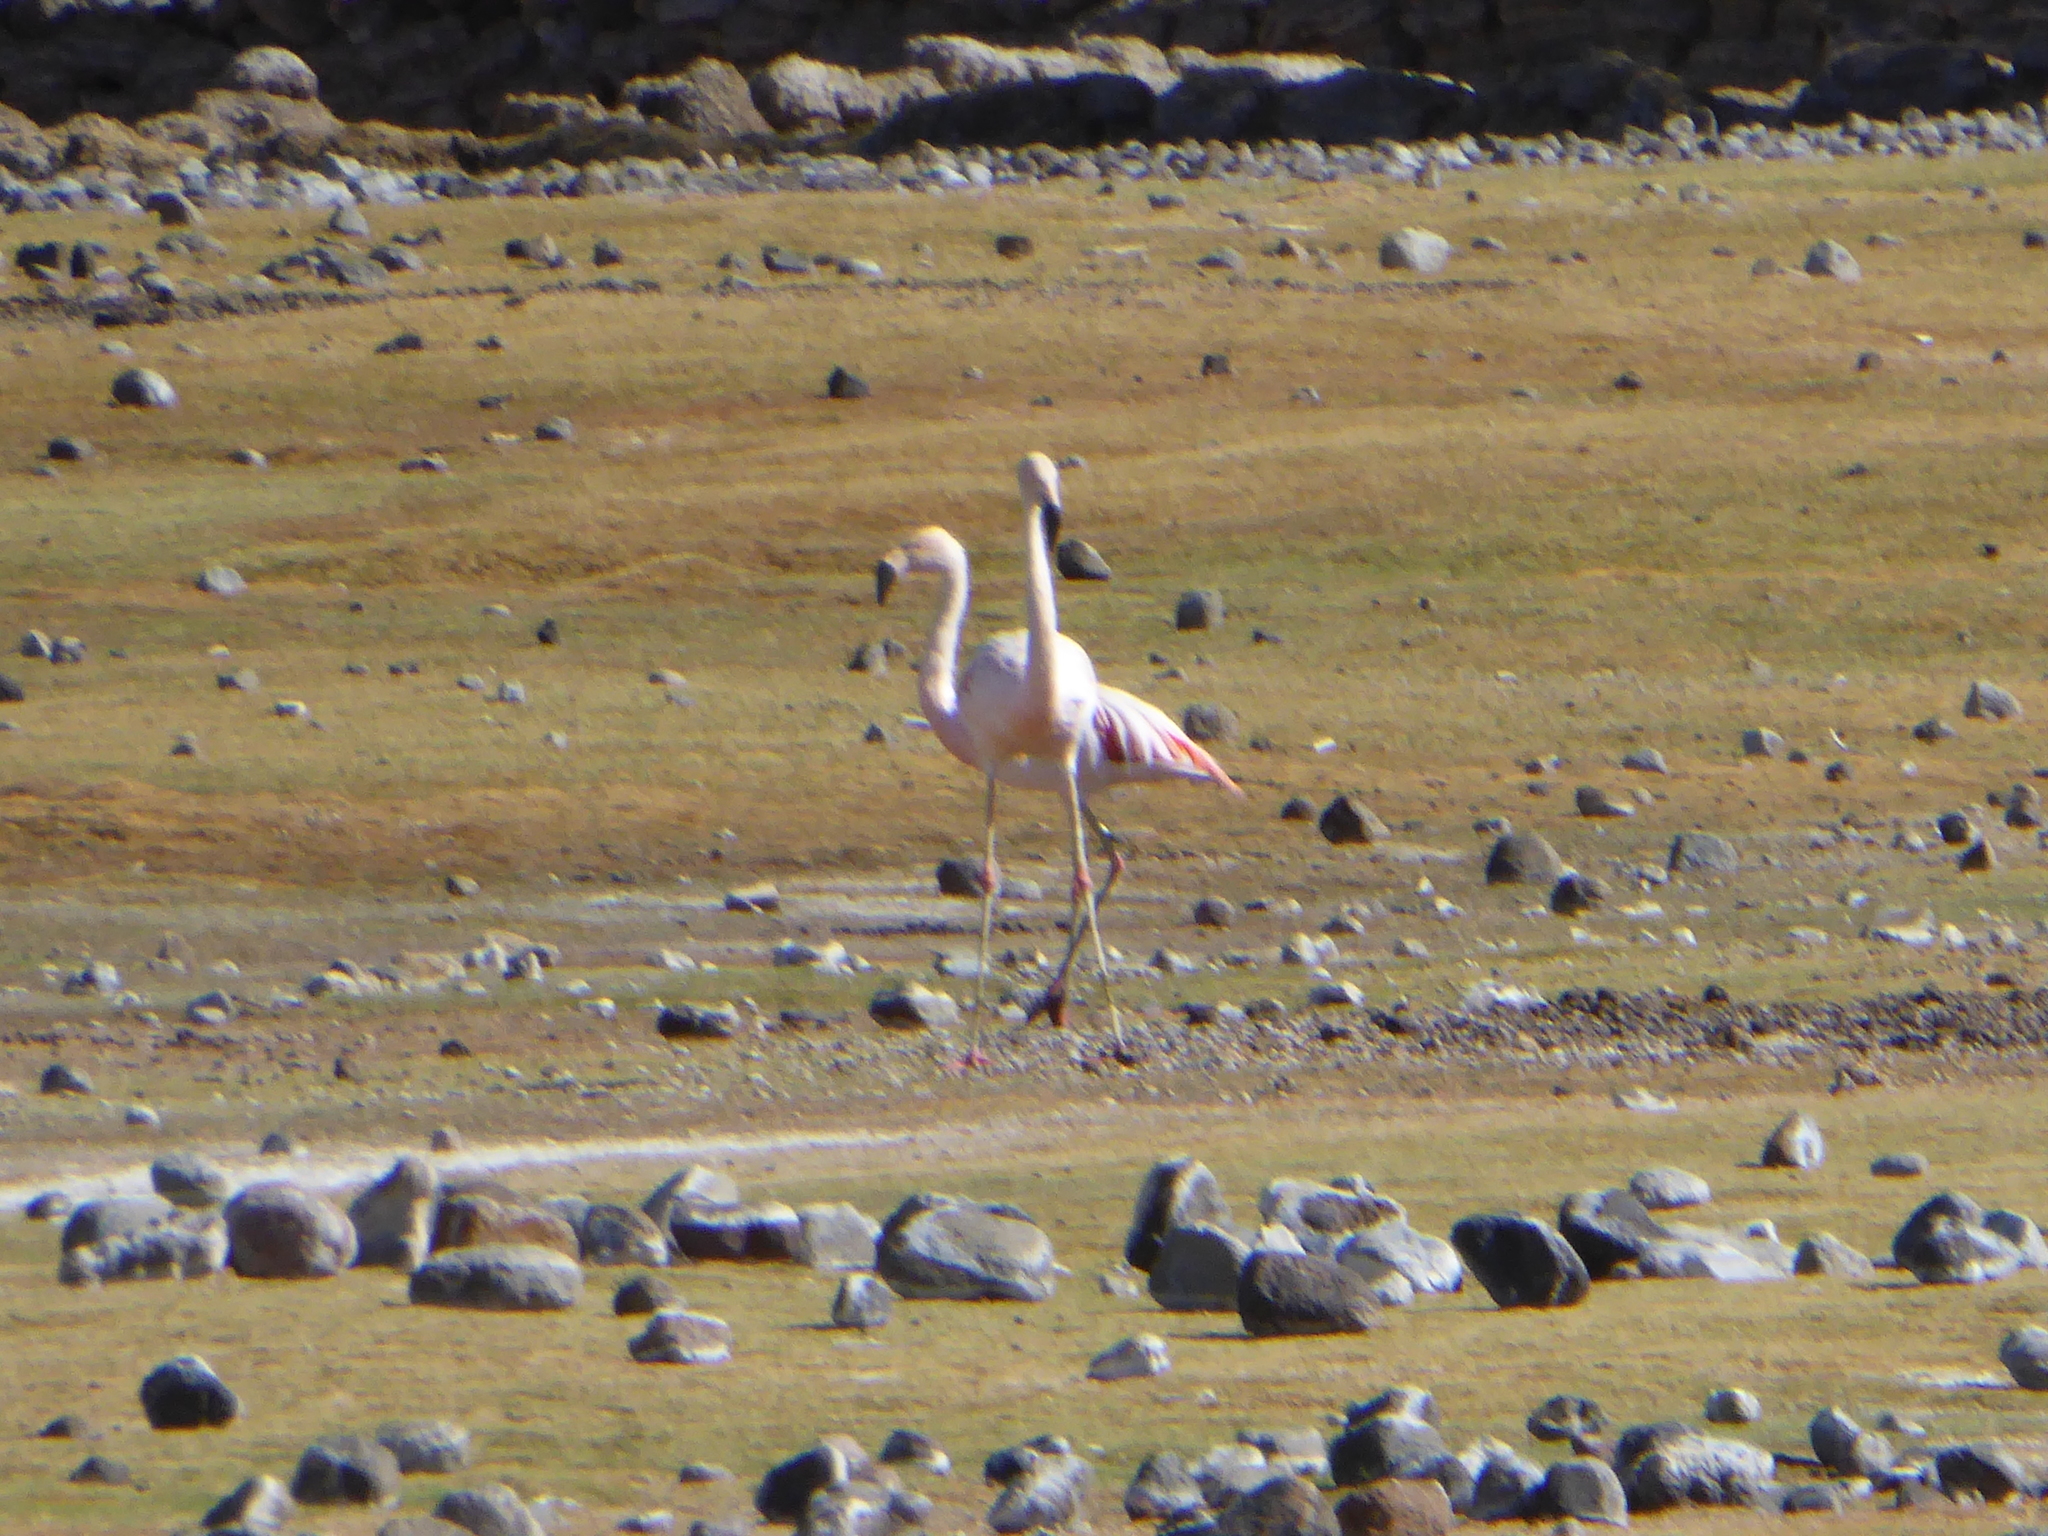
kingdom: Animalia
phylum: Chordata
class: Aves
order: Phoenicopteriformes
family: Phoenicopteridae
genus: Phoenicopterus
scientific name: Phoenicopterus chilensis
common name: Chilean flamingo
